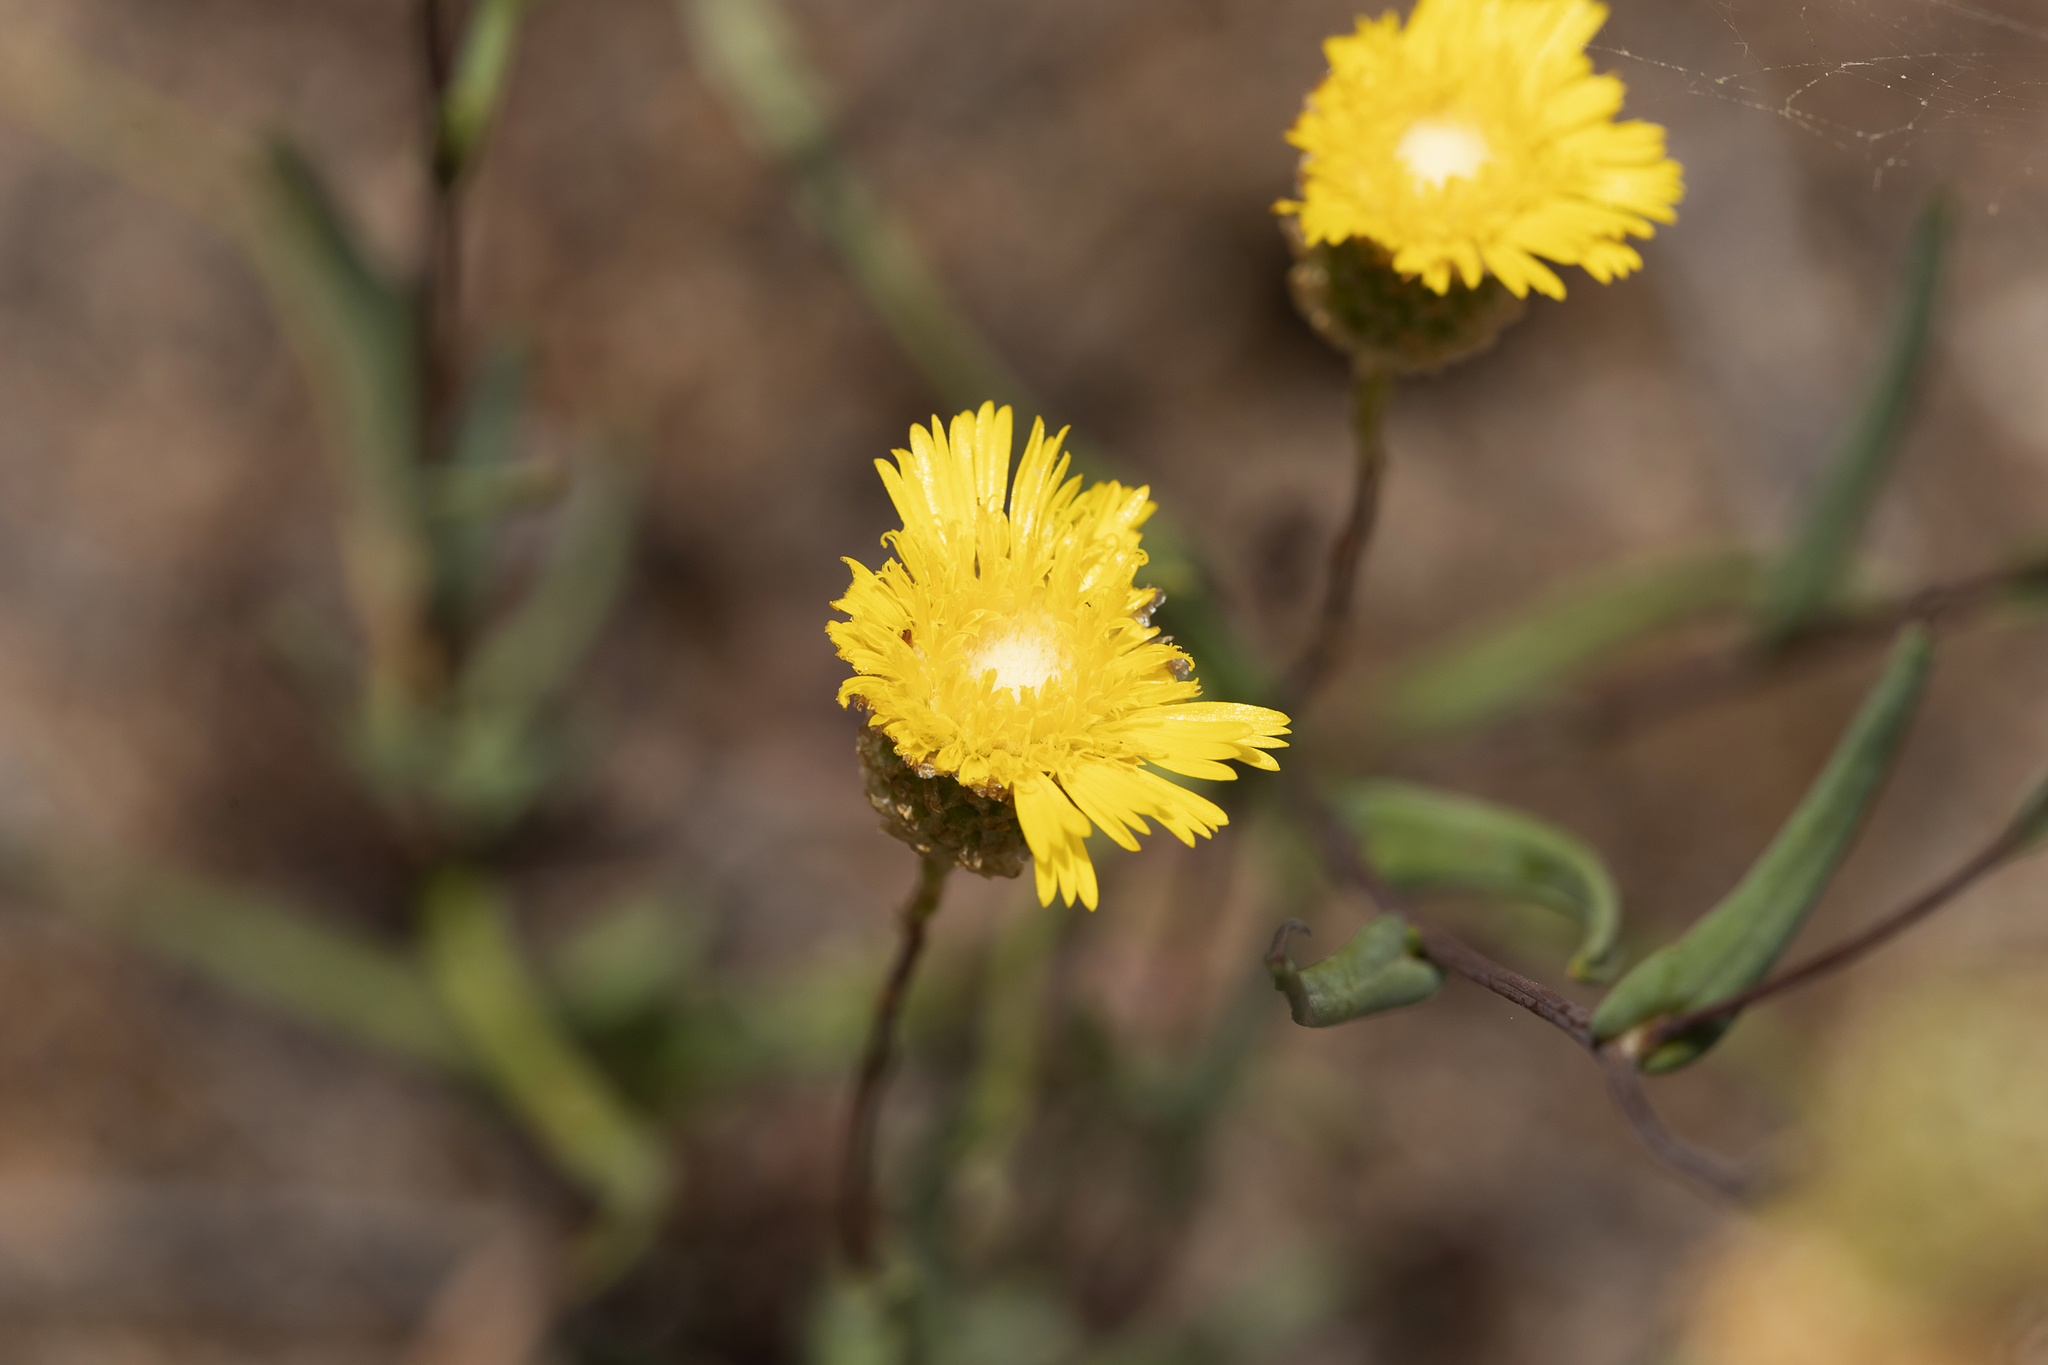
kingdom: Plantae
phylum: Tracheophyta
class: Magnoliopsida
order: Asterales
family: Asteraceae
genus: Podolepis
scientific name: Podolepis rugata
